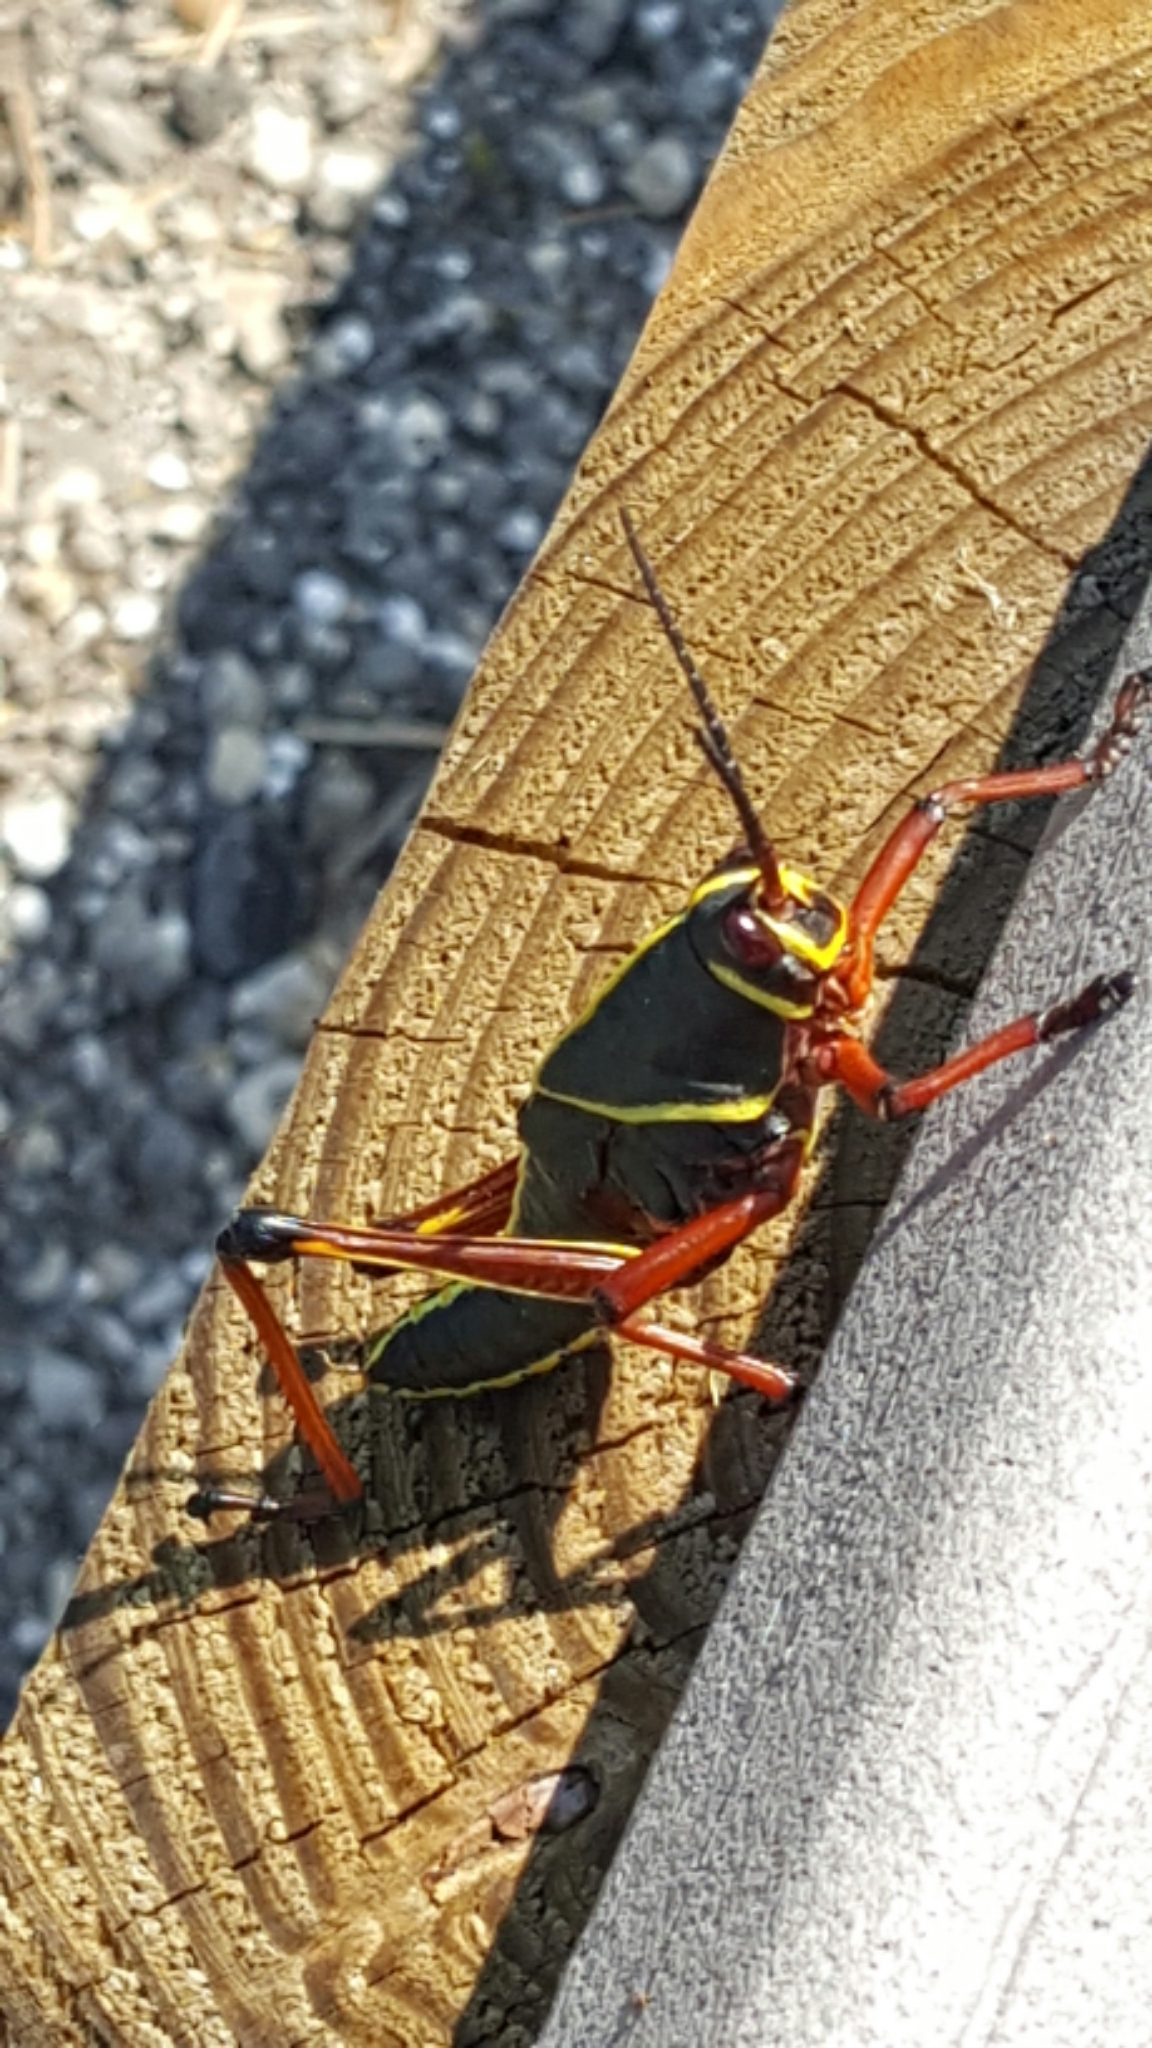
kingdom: Animalia
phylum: Arthropoda
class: Insecta
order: Orthoptera
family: Romaleidae
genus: Romalea
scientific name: Romalea microptera
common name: Eastern lubber grasshopper
